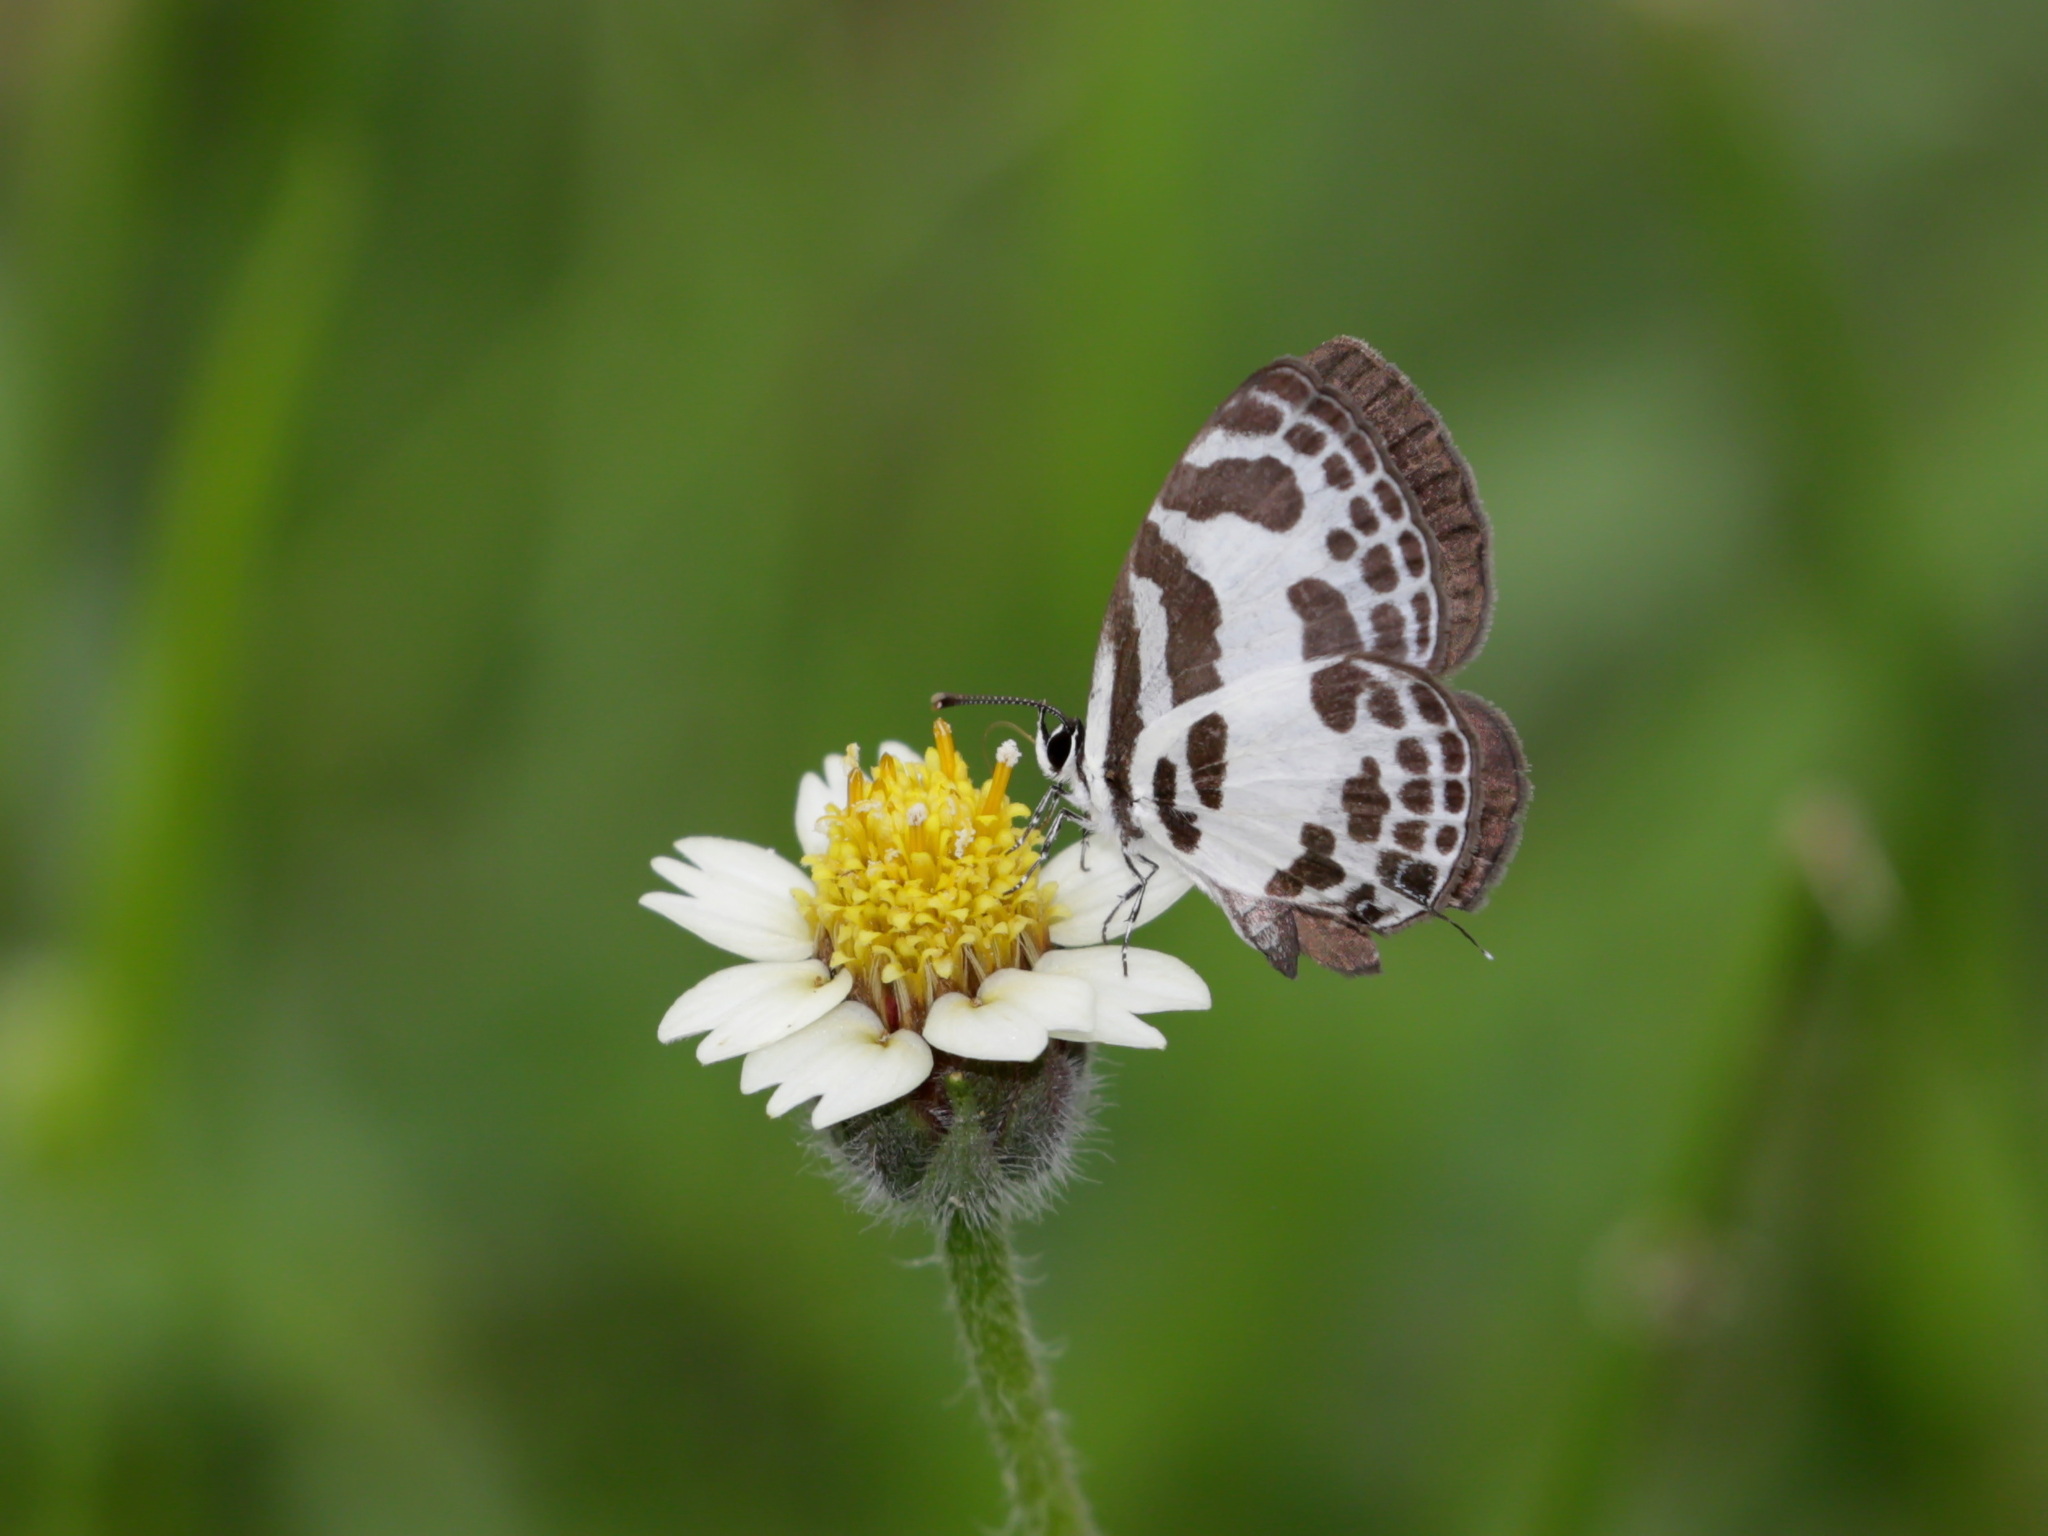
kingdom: Animalia
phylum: Arthropoda
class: Insecta
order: Lepidoptera
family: Lycaenidae
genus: Discolampa
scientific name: Discolampa ethion
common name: Banded blue pierrot
